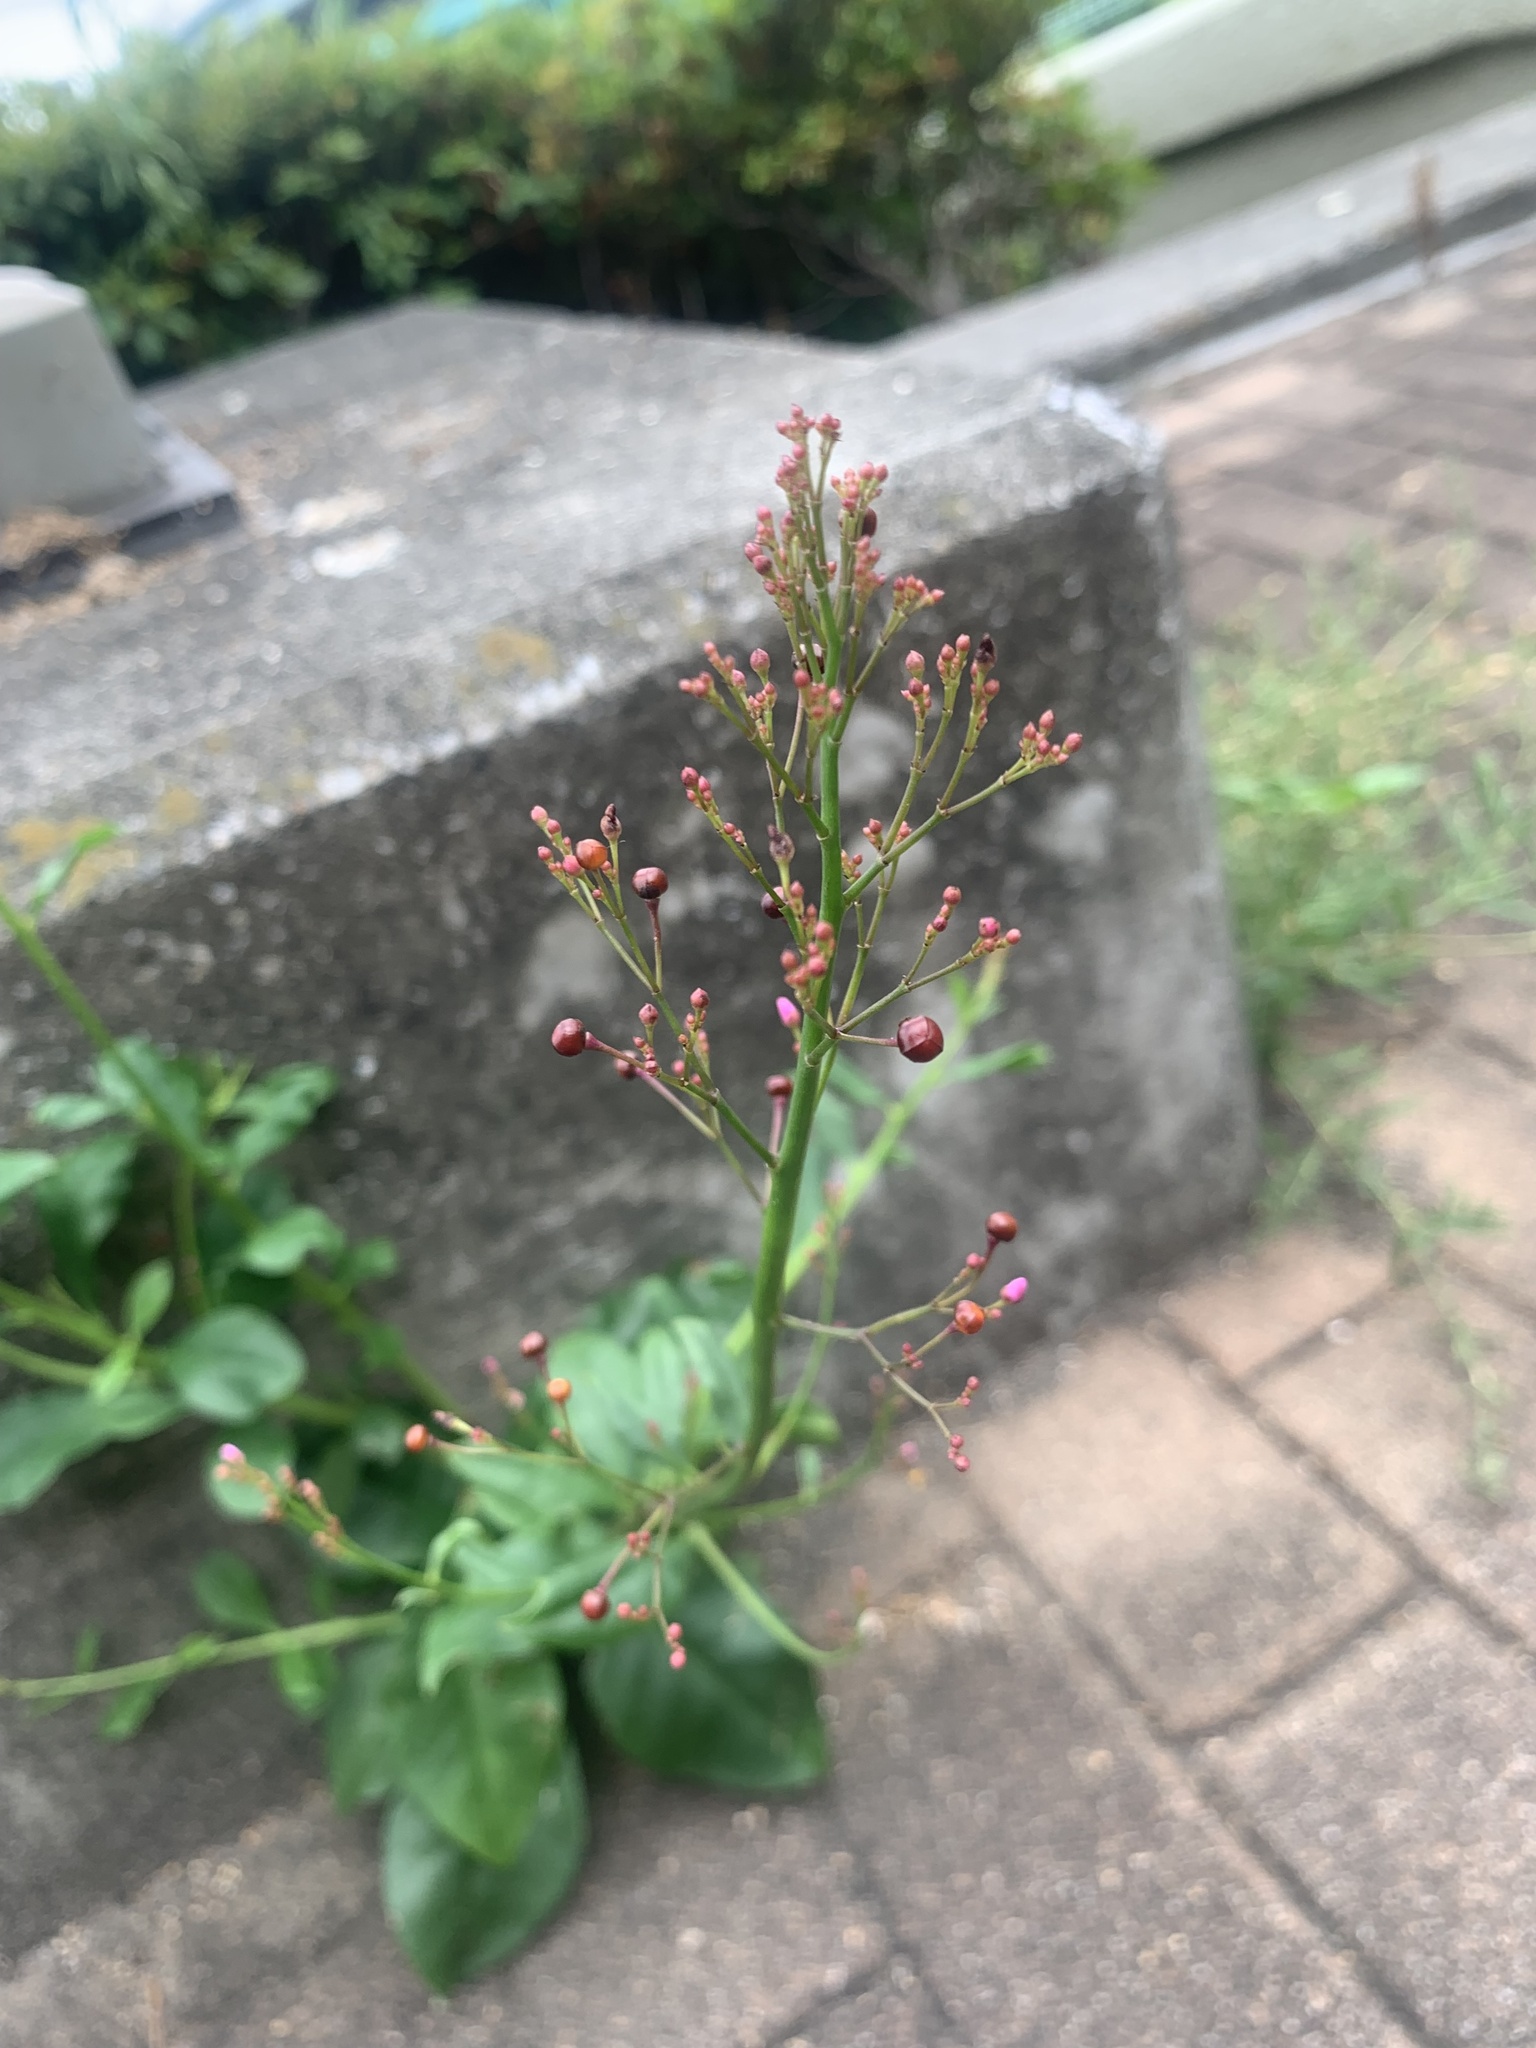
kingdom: Plantae
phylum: Tracheophyta
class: Magnoliopsida
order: Caryophyllales
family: Talinaceae
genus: Talinum
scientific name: Talinum paniculatum
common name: Jewels of opar
